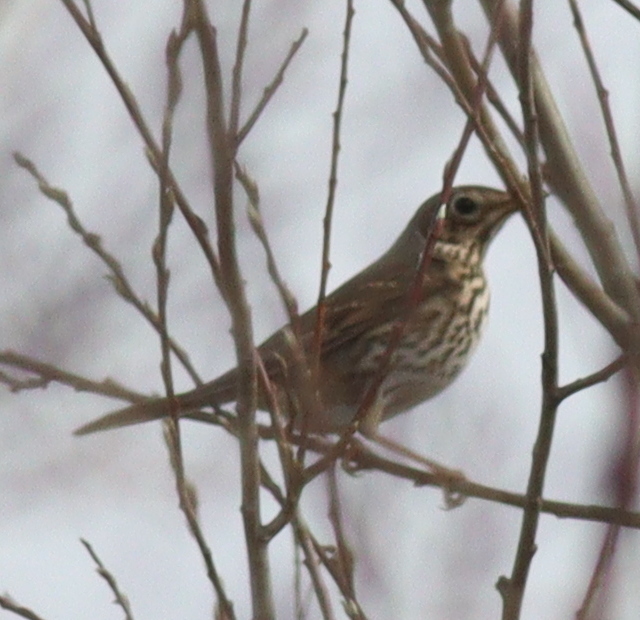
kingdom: Animalia
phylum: Chordata
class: Aves
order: Passeriformes
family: Turdidae
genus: Turdus
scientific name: Turdus philomelos
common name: Song thrush
